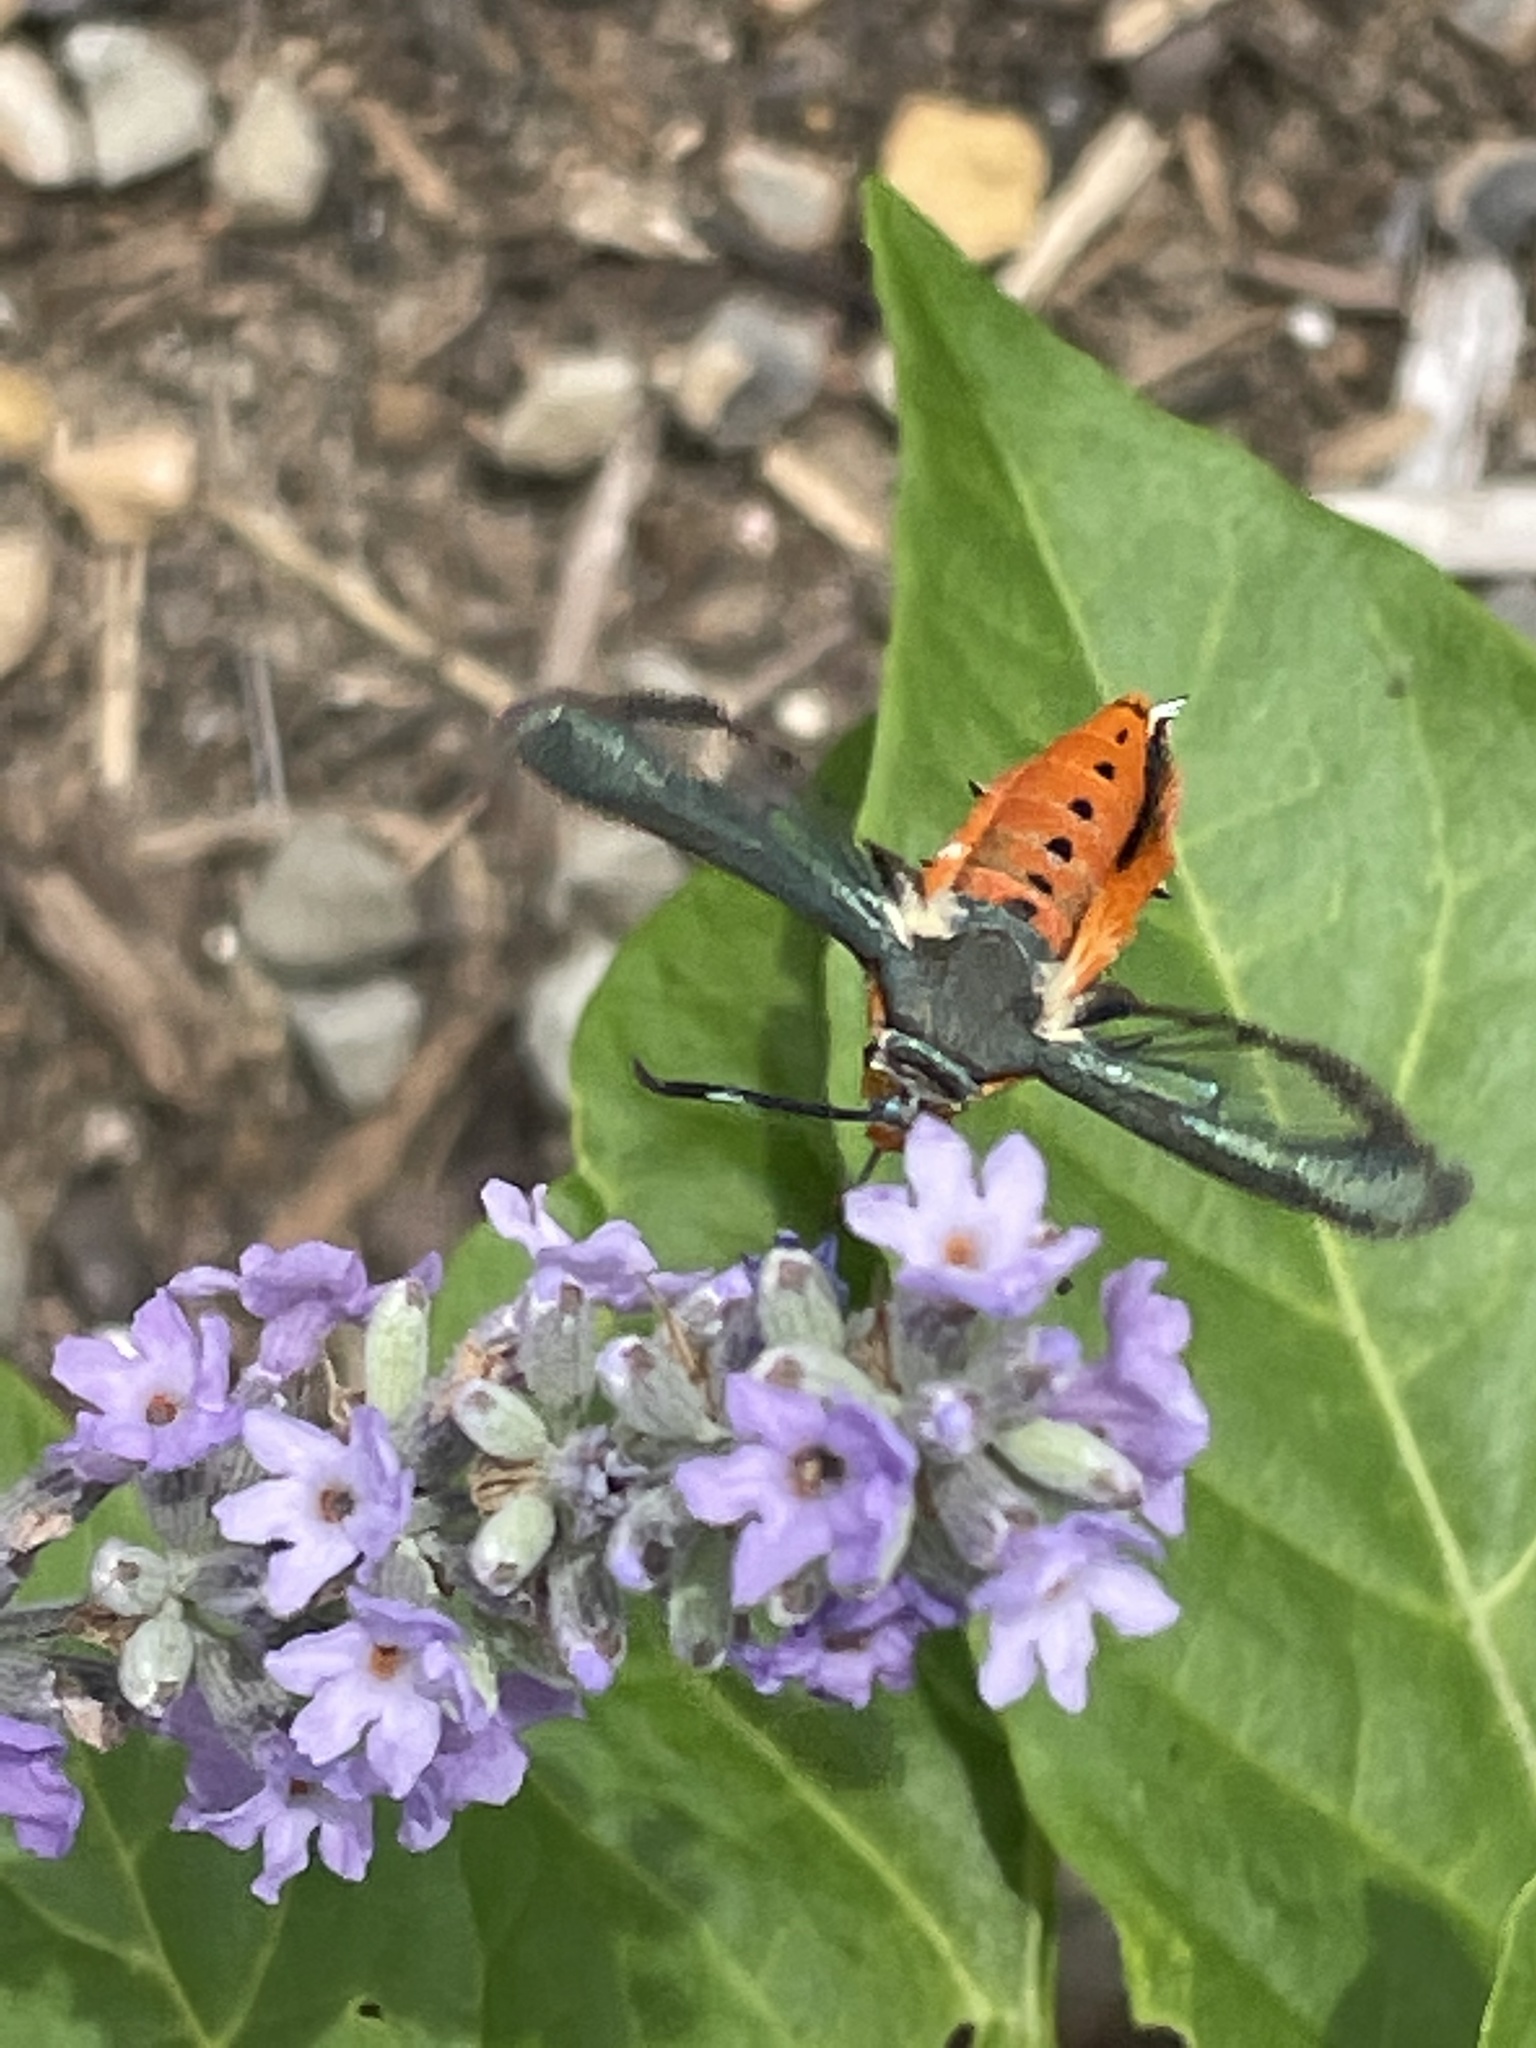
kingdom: Animalia
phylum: Arthropoda
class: Insecta
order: Lepidoptera
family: Sesiidae
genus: Eichlinia
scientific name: Eichlinia calabaza
